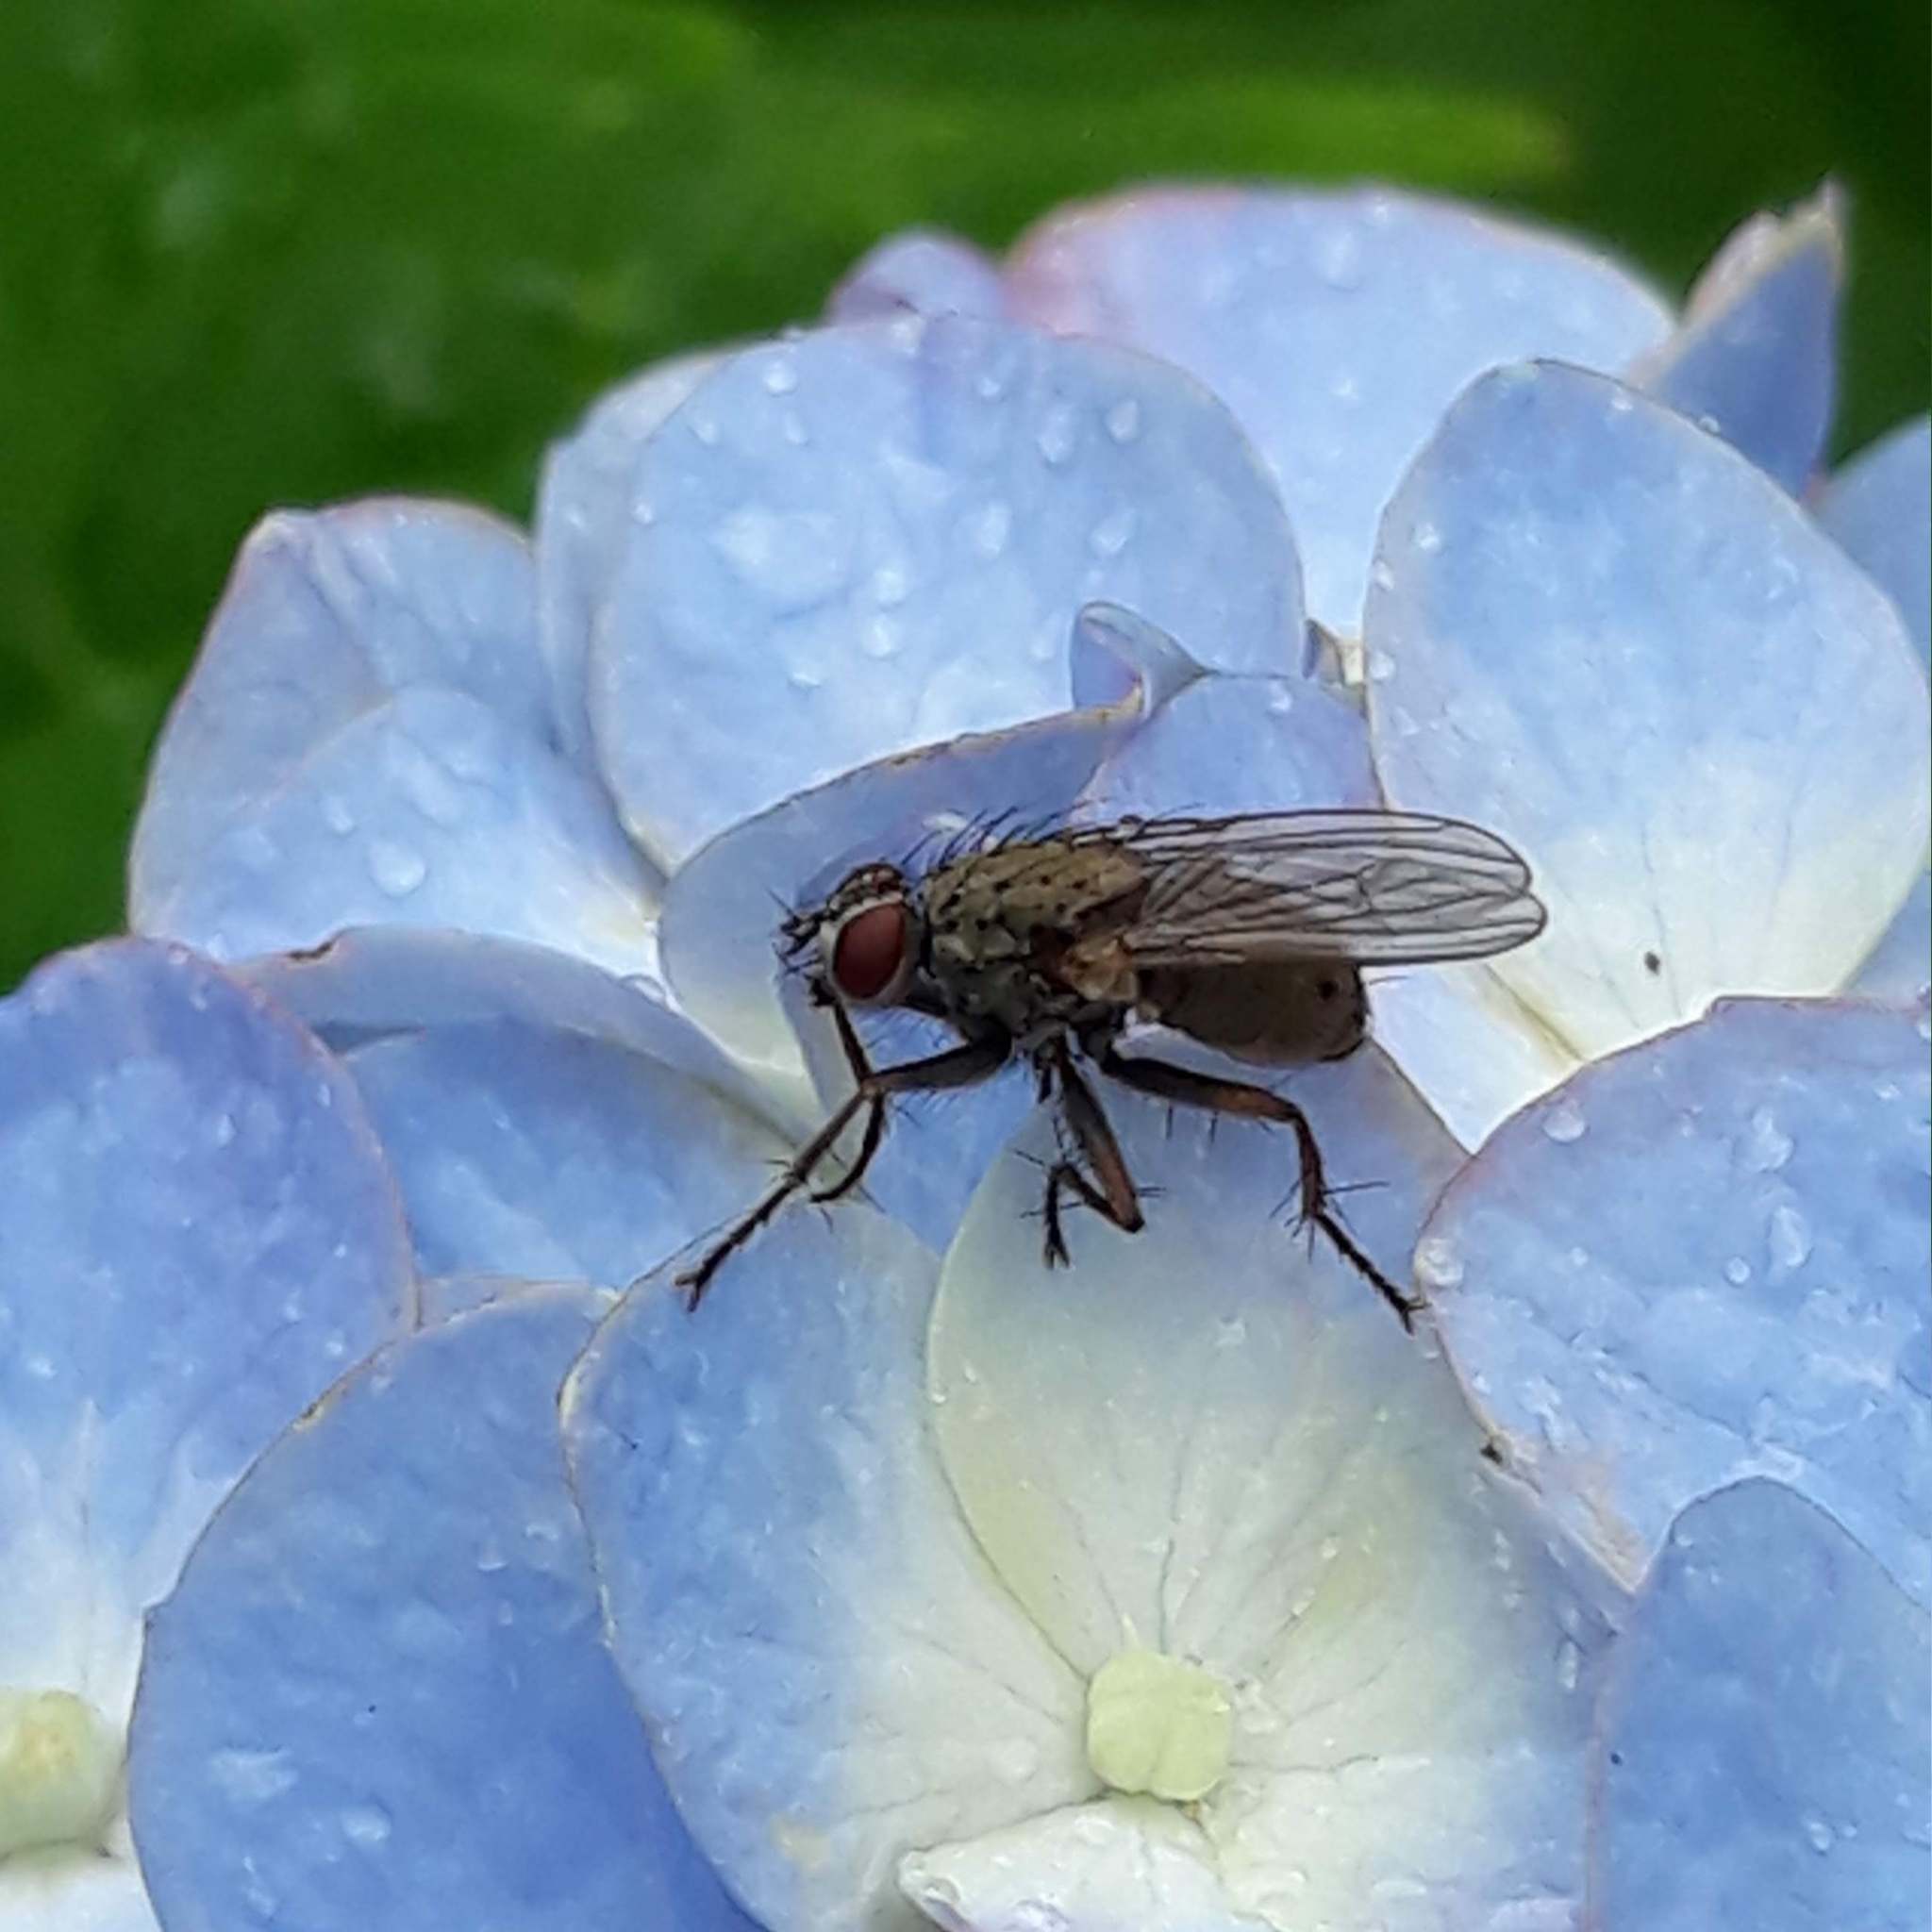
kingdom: Animalia
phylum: Arthropoda
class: Insecta
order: Diptera
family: Muscidae
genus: Coenosia
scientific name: Coenosia tigrina
